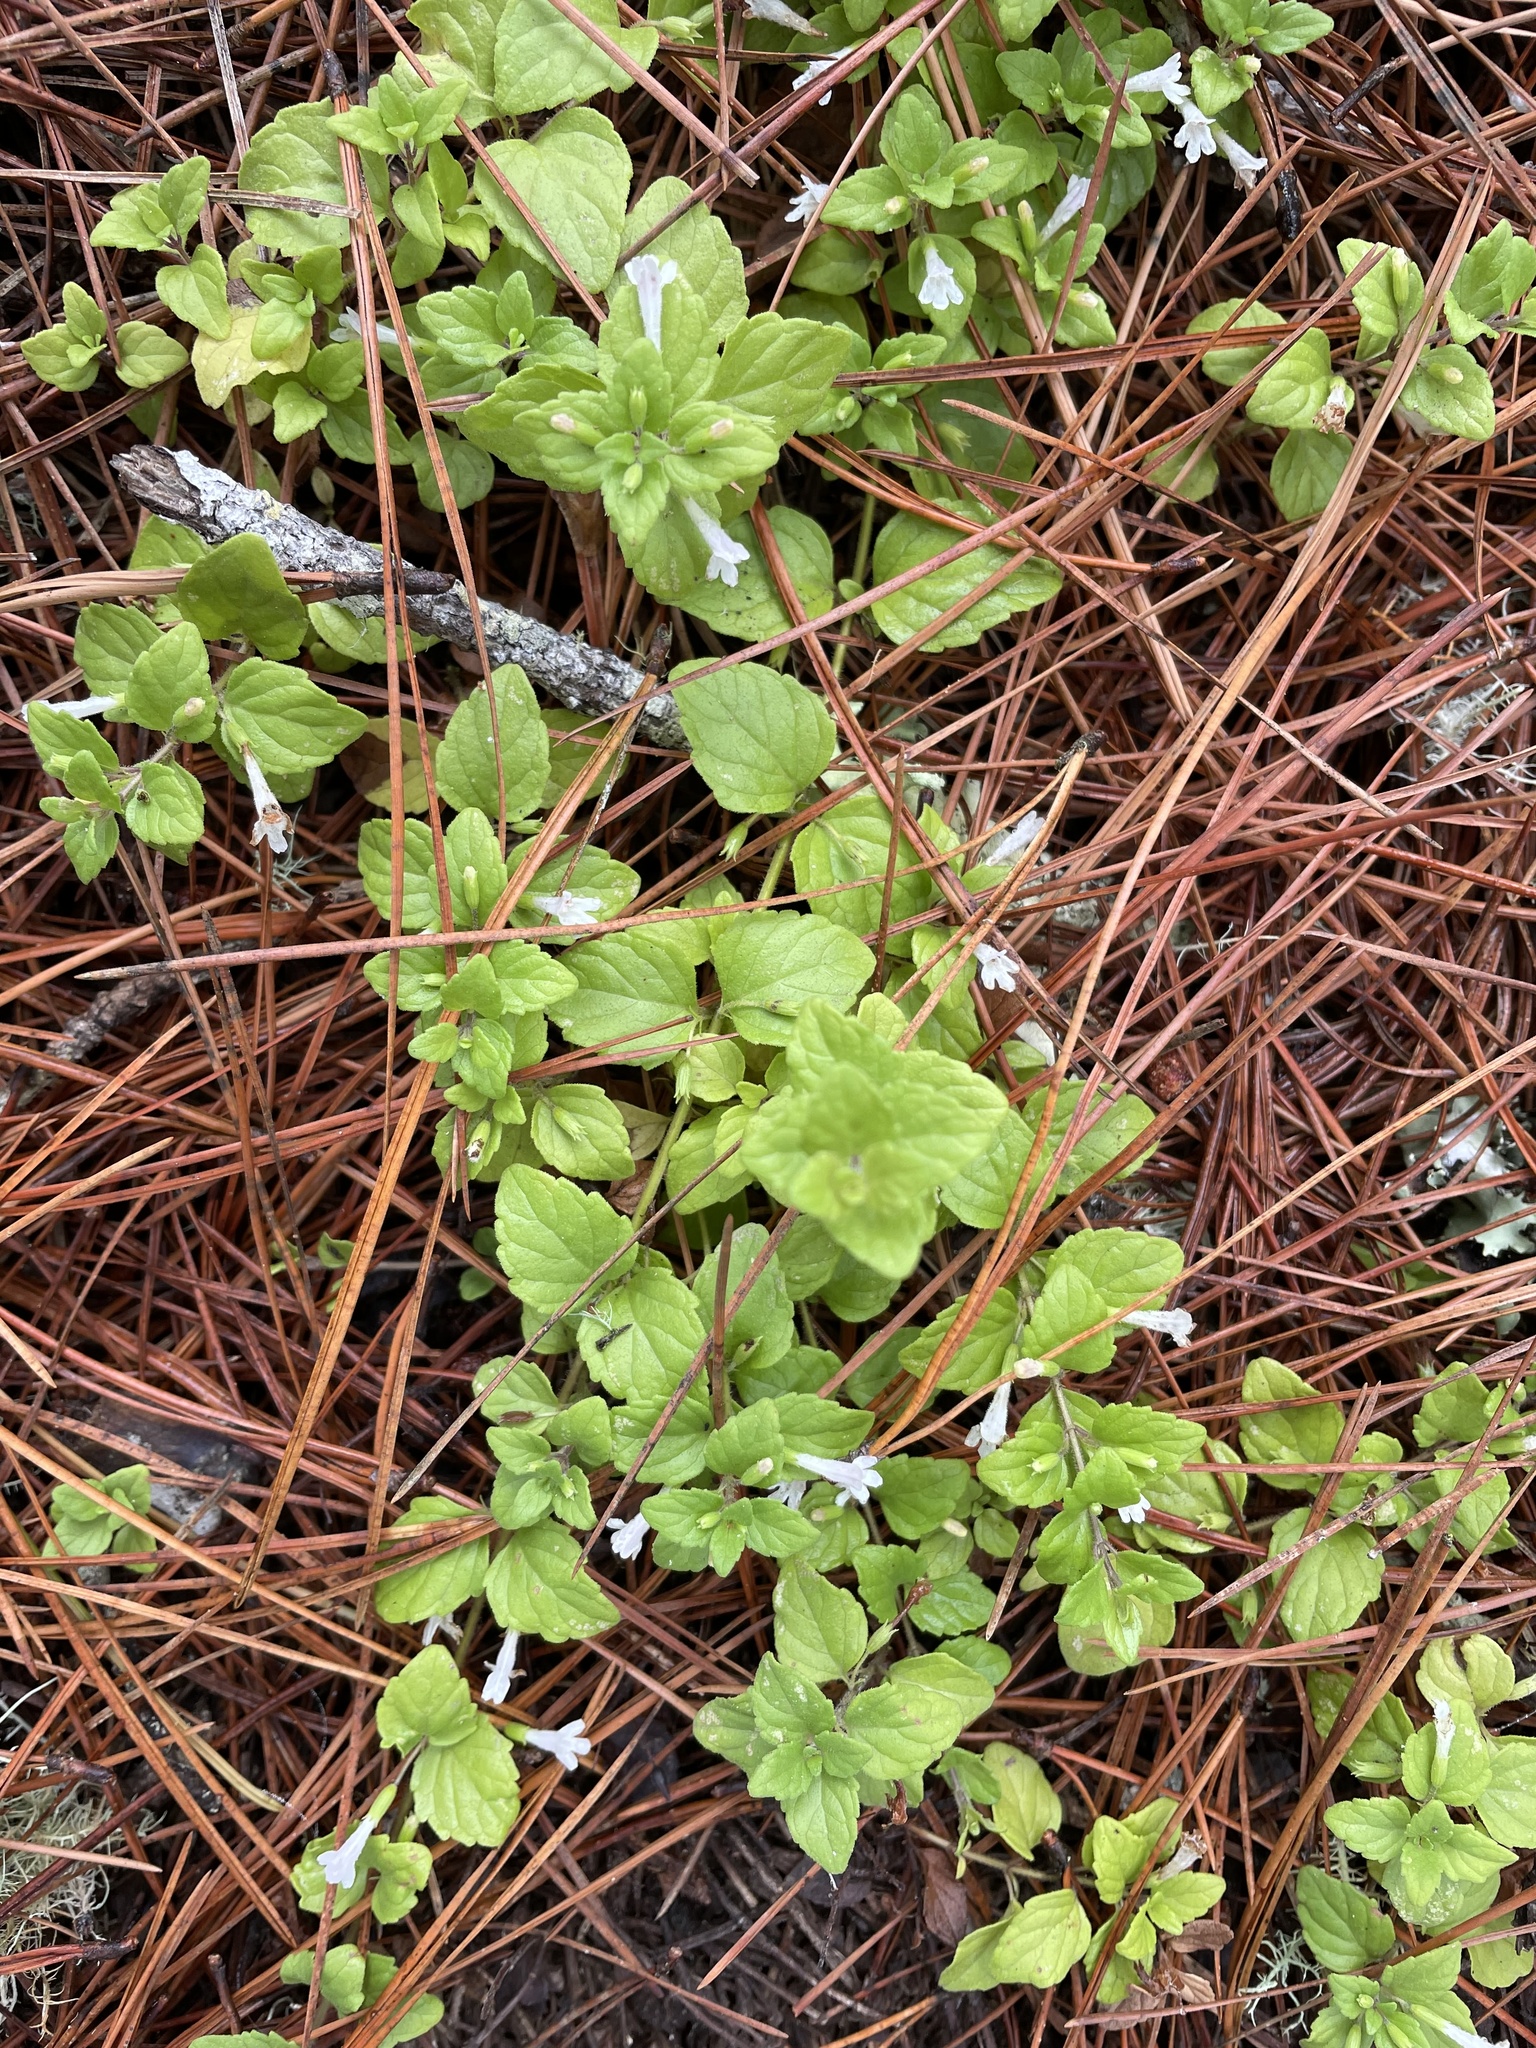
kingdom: Plantae
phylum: Tracheophyta
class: Magnoliopsida
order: Lamiales
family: Lamiaceae
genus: Micromeria
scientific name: Micromeria douglasii
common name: Yerba buena
